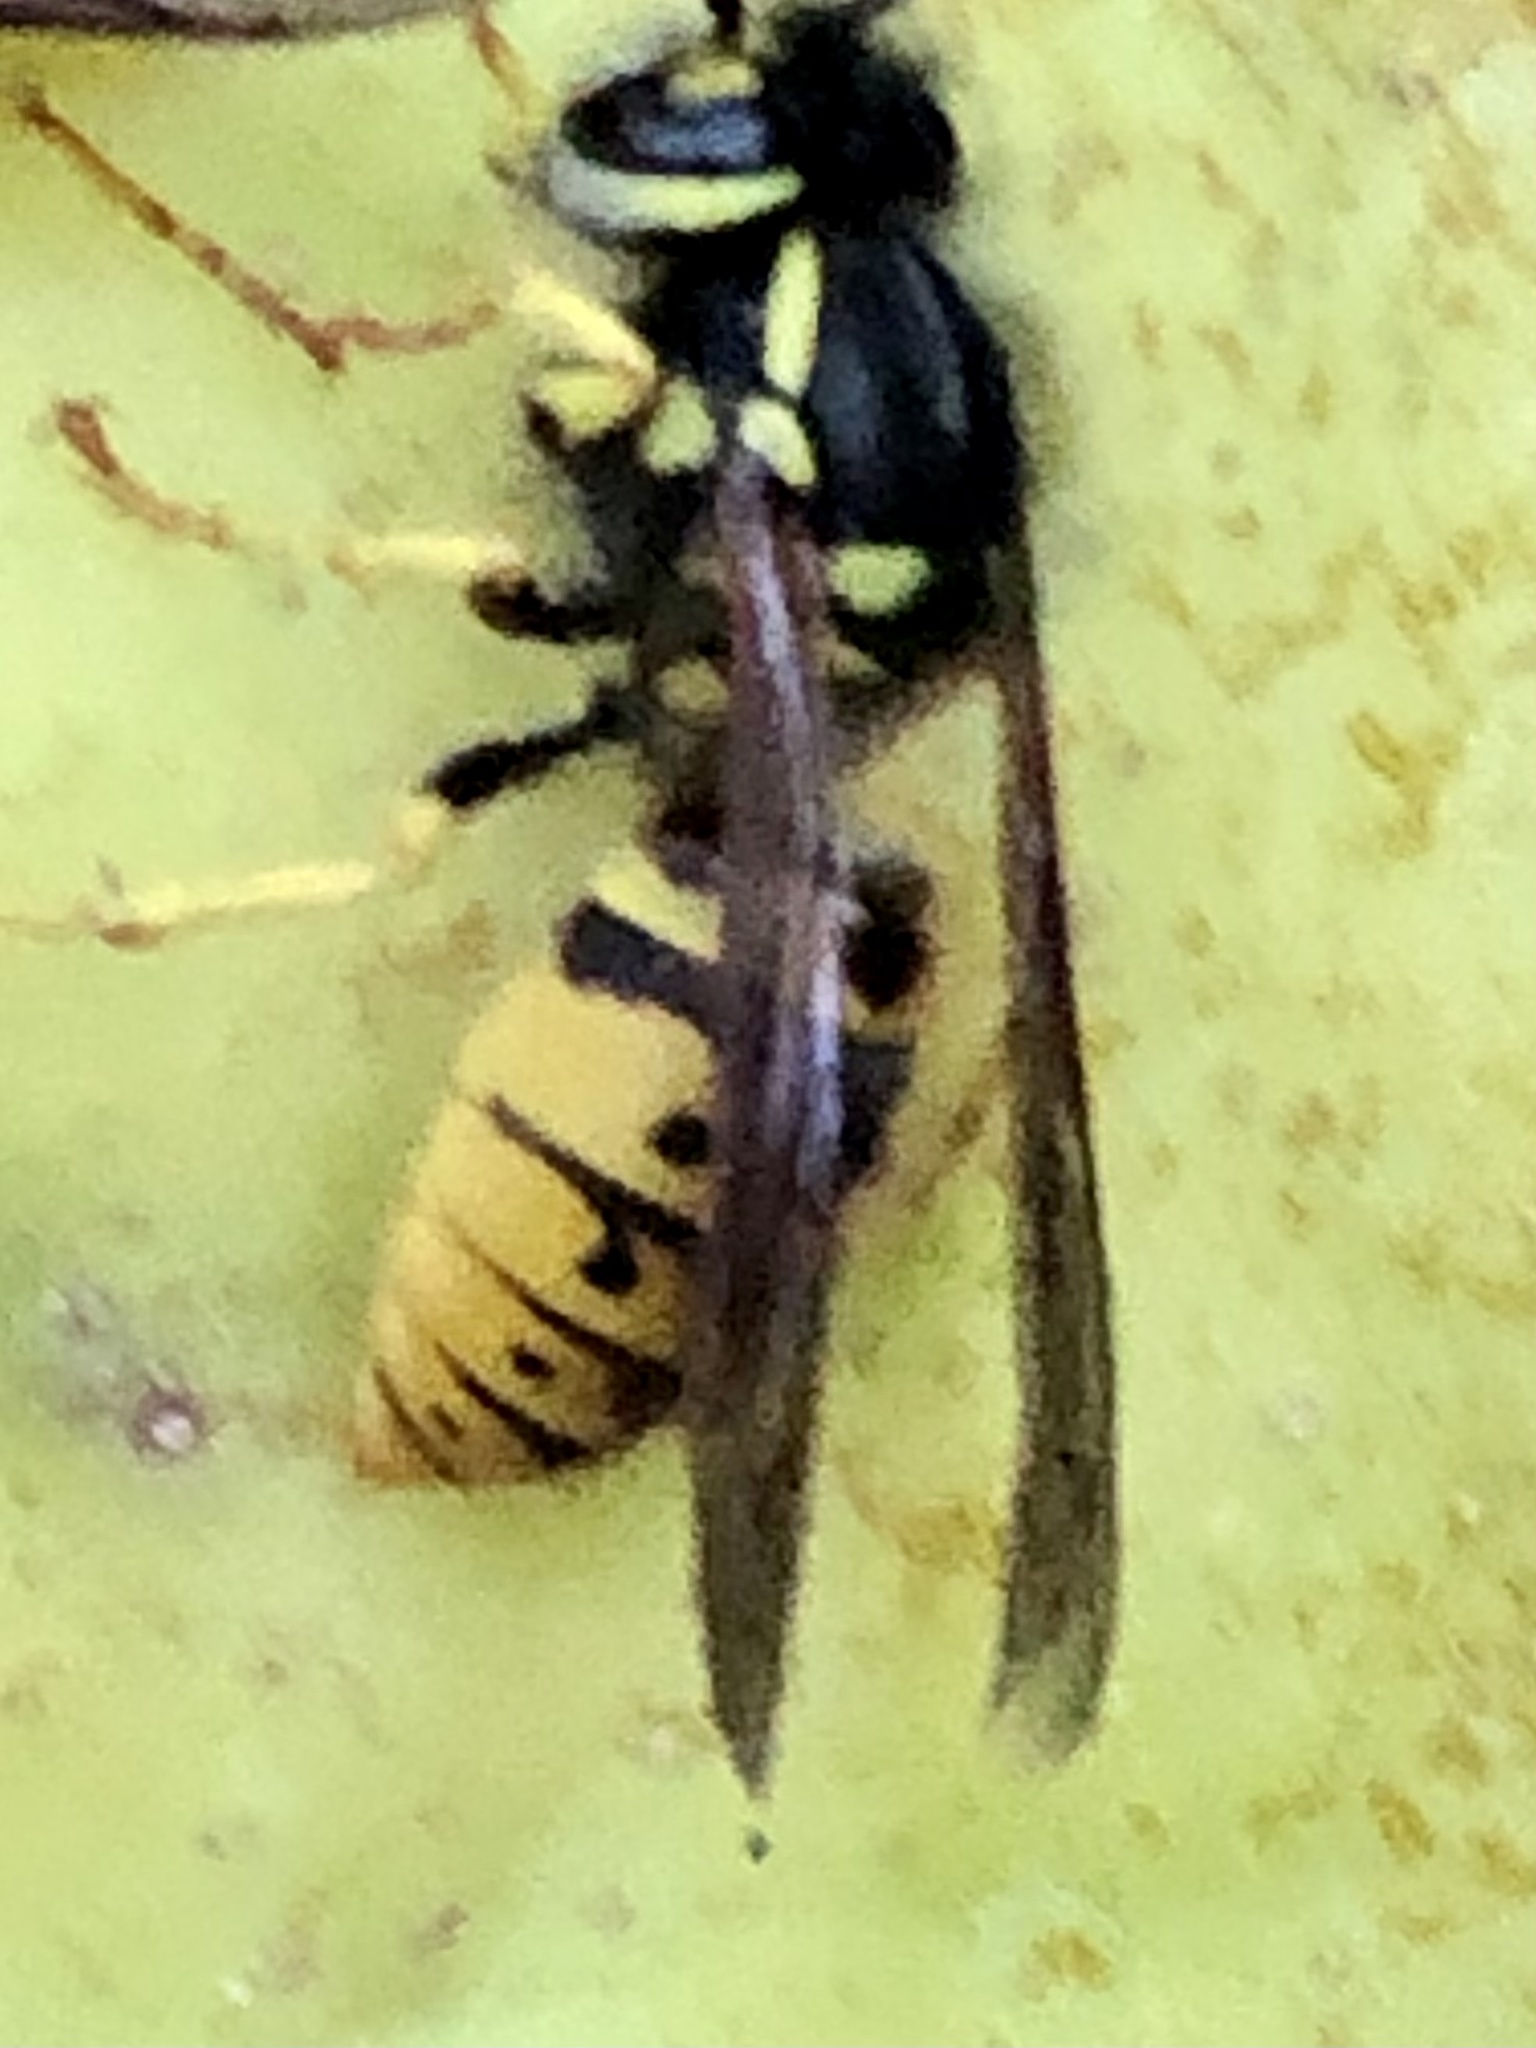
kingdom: Animalia
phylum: Arthropoda
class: Insecta
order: Hymenoptera
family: Vespidae
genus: Vespula
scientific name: Vespula germanica
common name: German wasp
